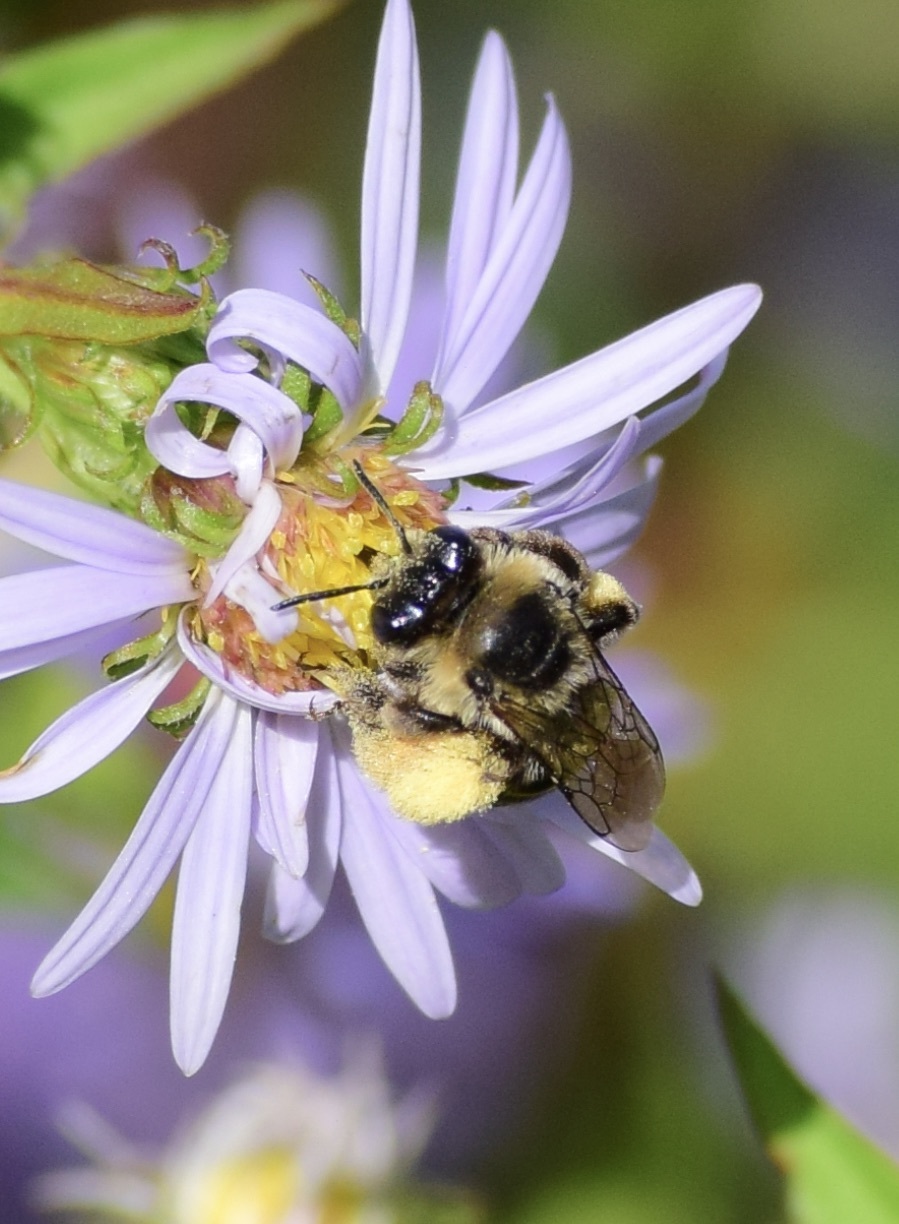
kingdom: Animalia
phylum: Arthropoda
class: Insecta
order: Hymenoptera
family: Apidae
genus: Melissodes
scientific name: Melissodes druriellus
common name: Drury's long-horned bee
